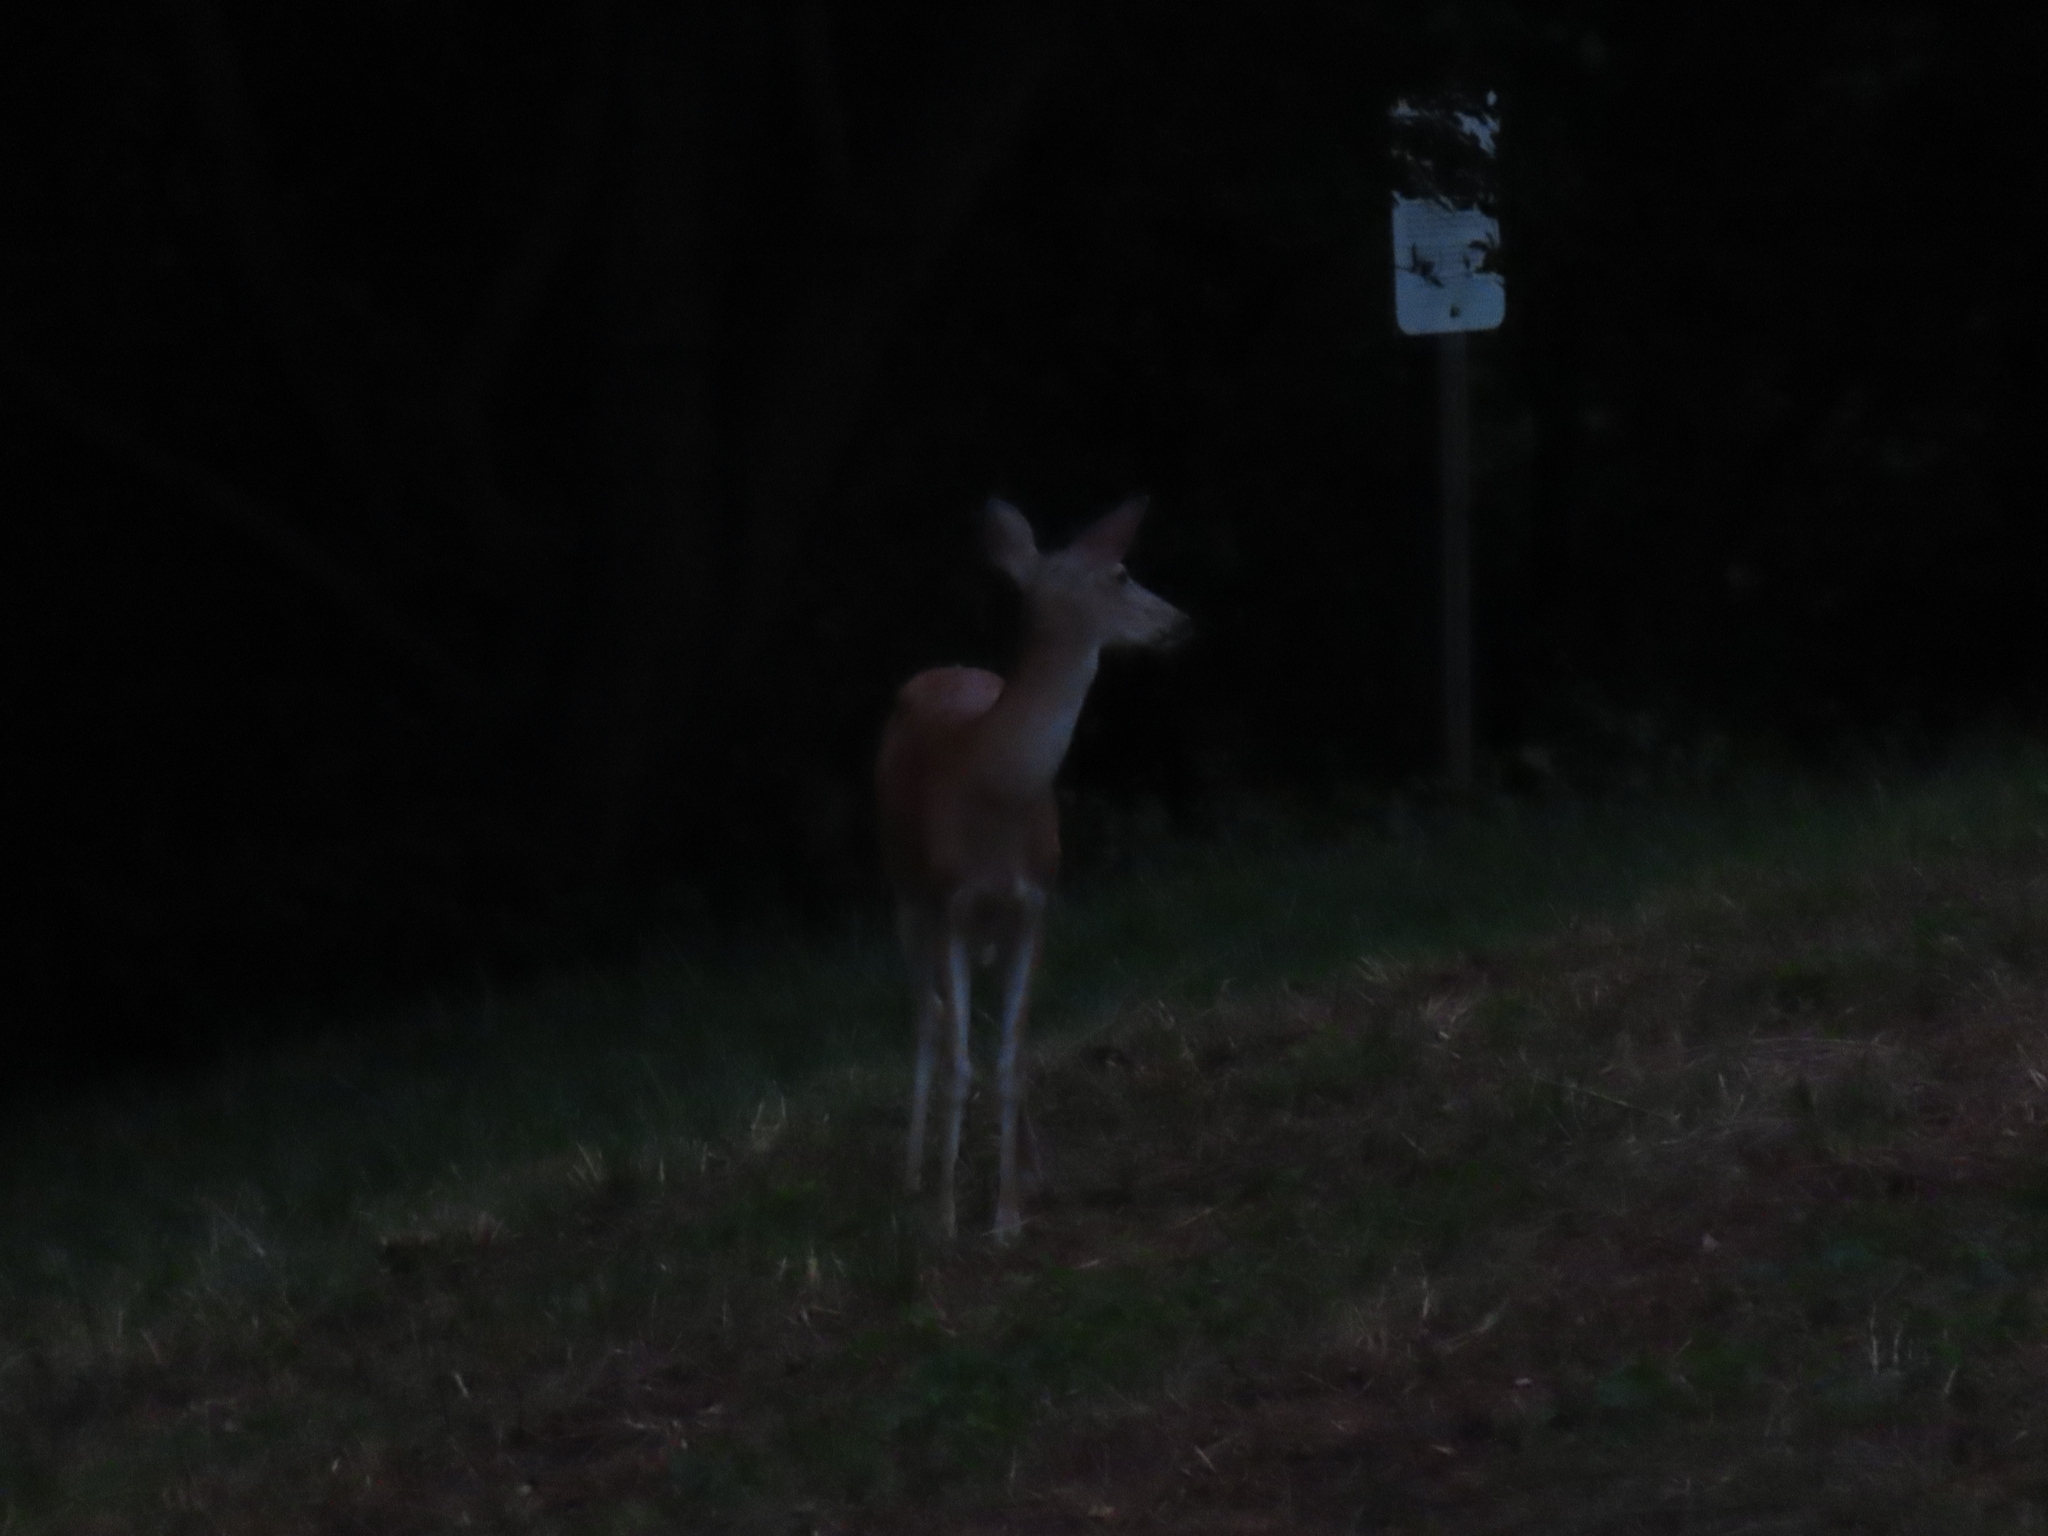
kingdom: Animalia
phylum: Chordata
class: Mammalia
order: Artiodactyla
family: Cervidae
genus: Odocoileus
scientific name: Odocoileus virginianus
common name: White-tailed deer
